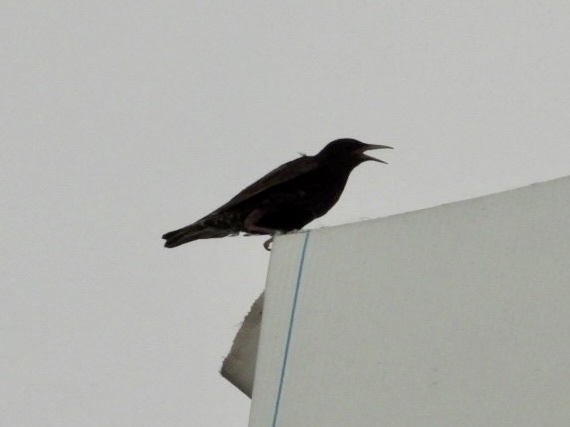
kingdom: Animalia
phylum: Chordata
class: Aves
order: Passeriformes
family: Sturnidae
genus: Sturnus
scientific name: Sturnus vulgaris
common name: Common starling
